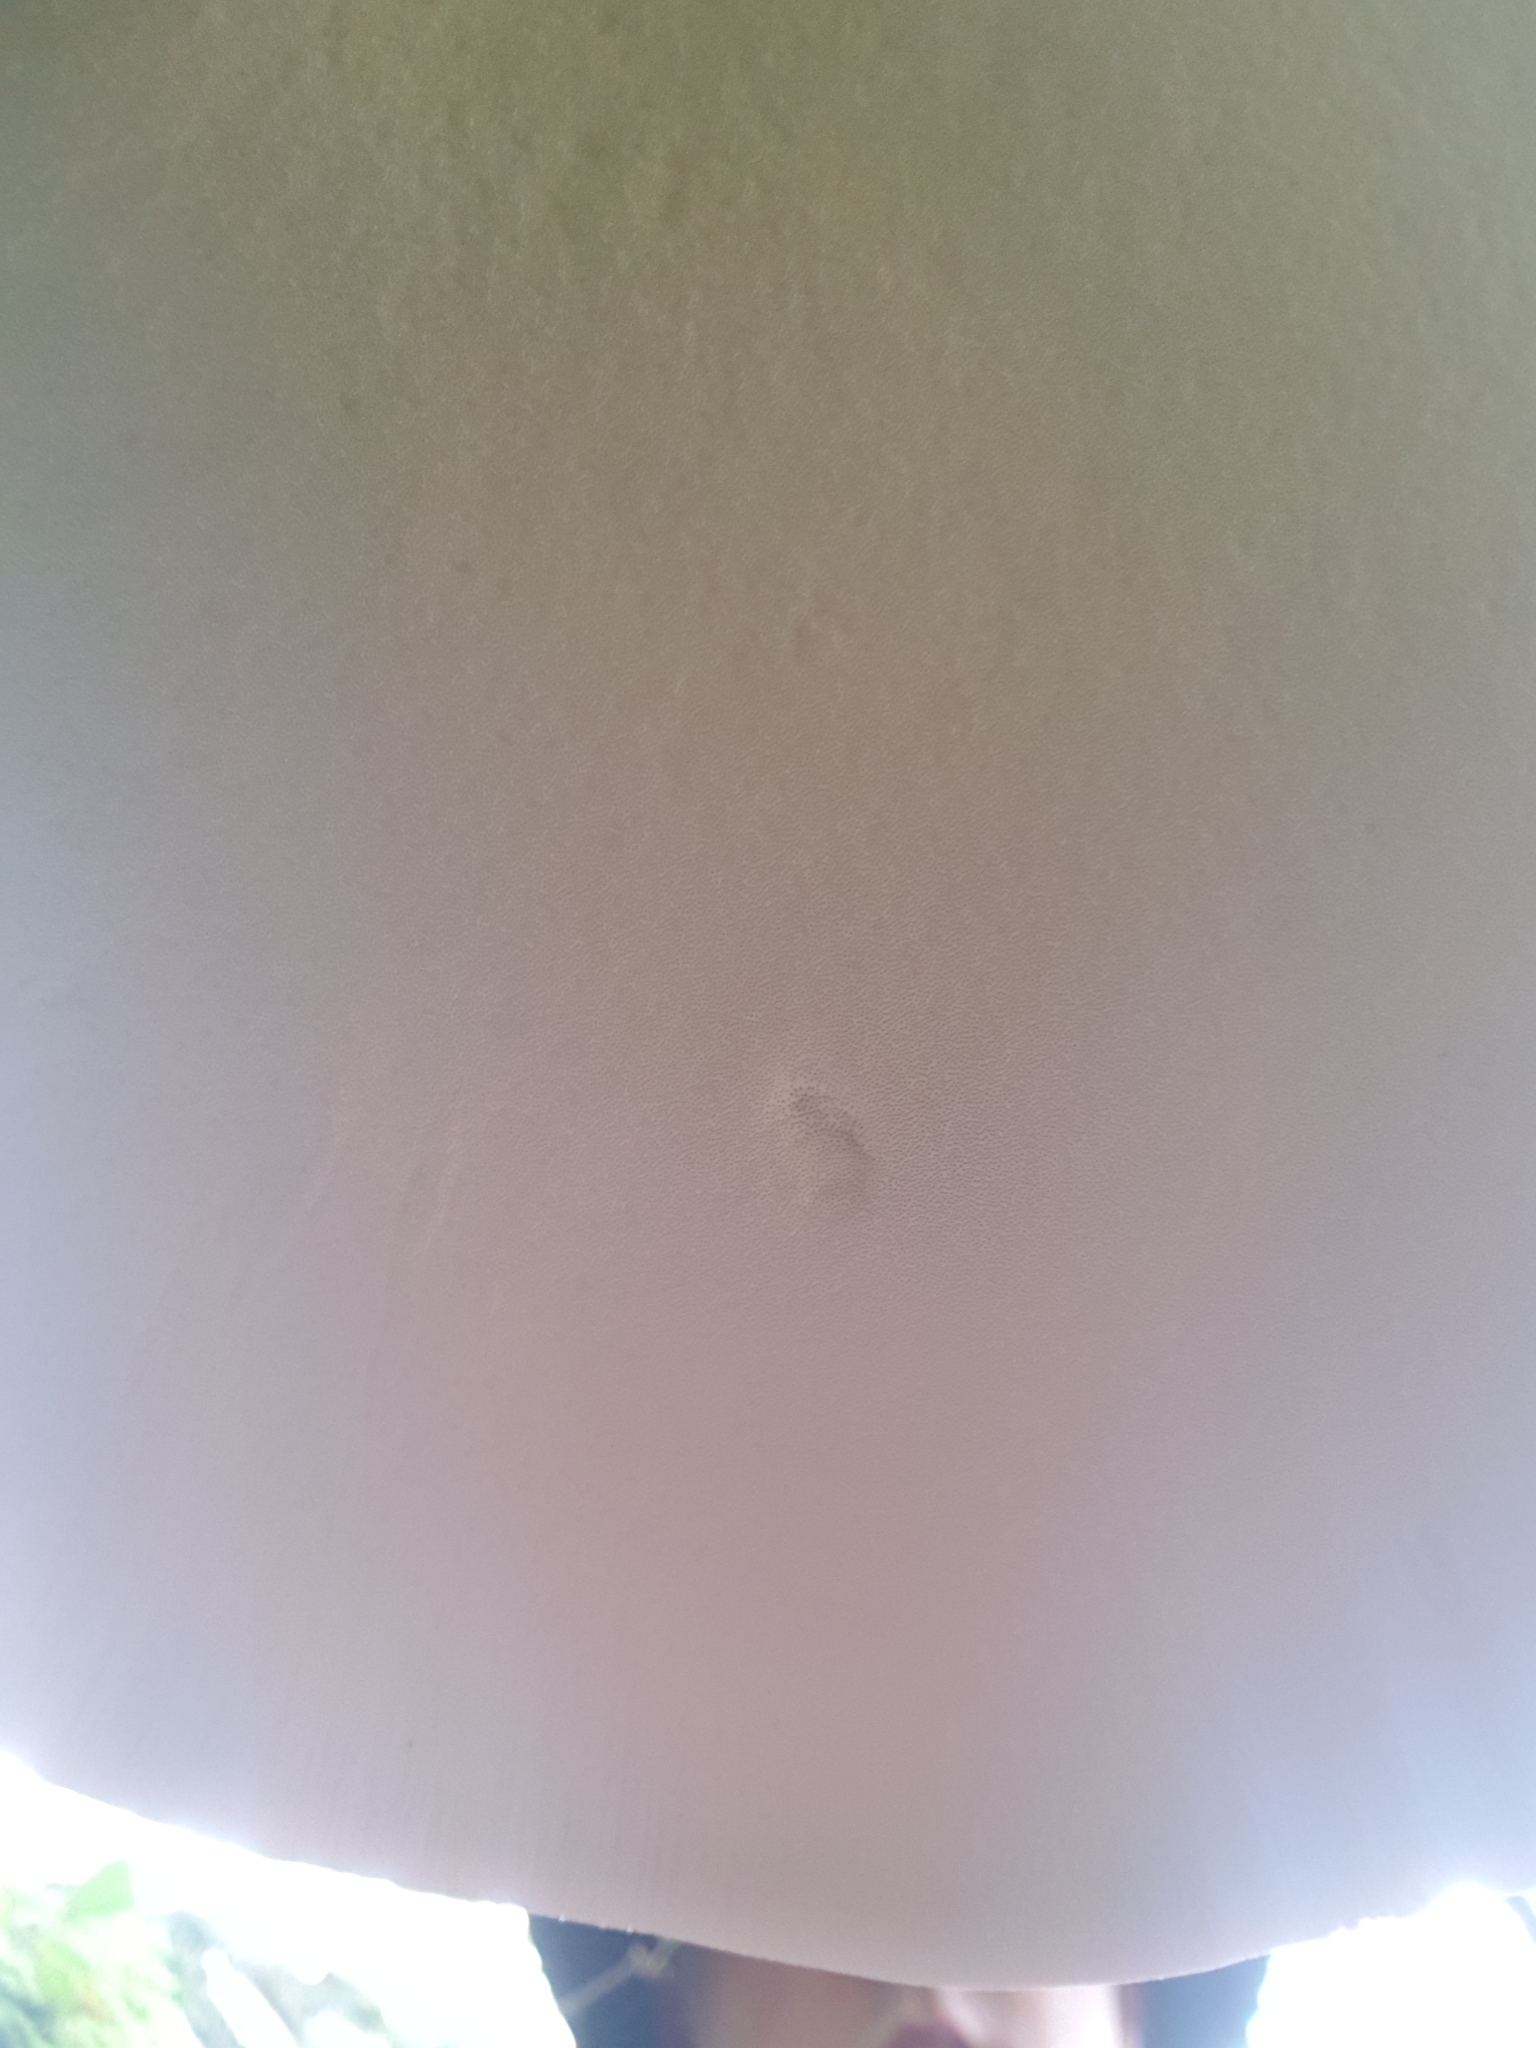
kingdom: Fungi
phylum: Basidiomycota
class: Agaricomycetes
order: Polyporales
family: Fomitopsidaceae
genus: Fomitopsis
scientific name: Fomitopsis betulina
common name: Birch polypore
